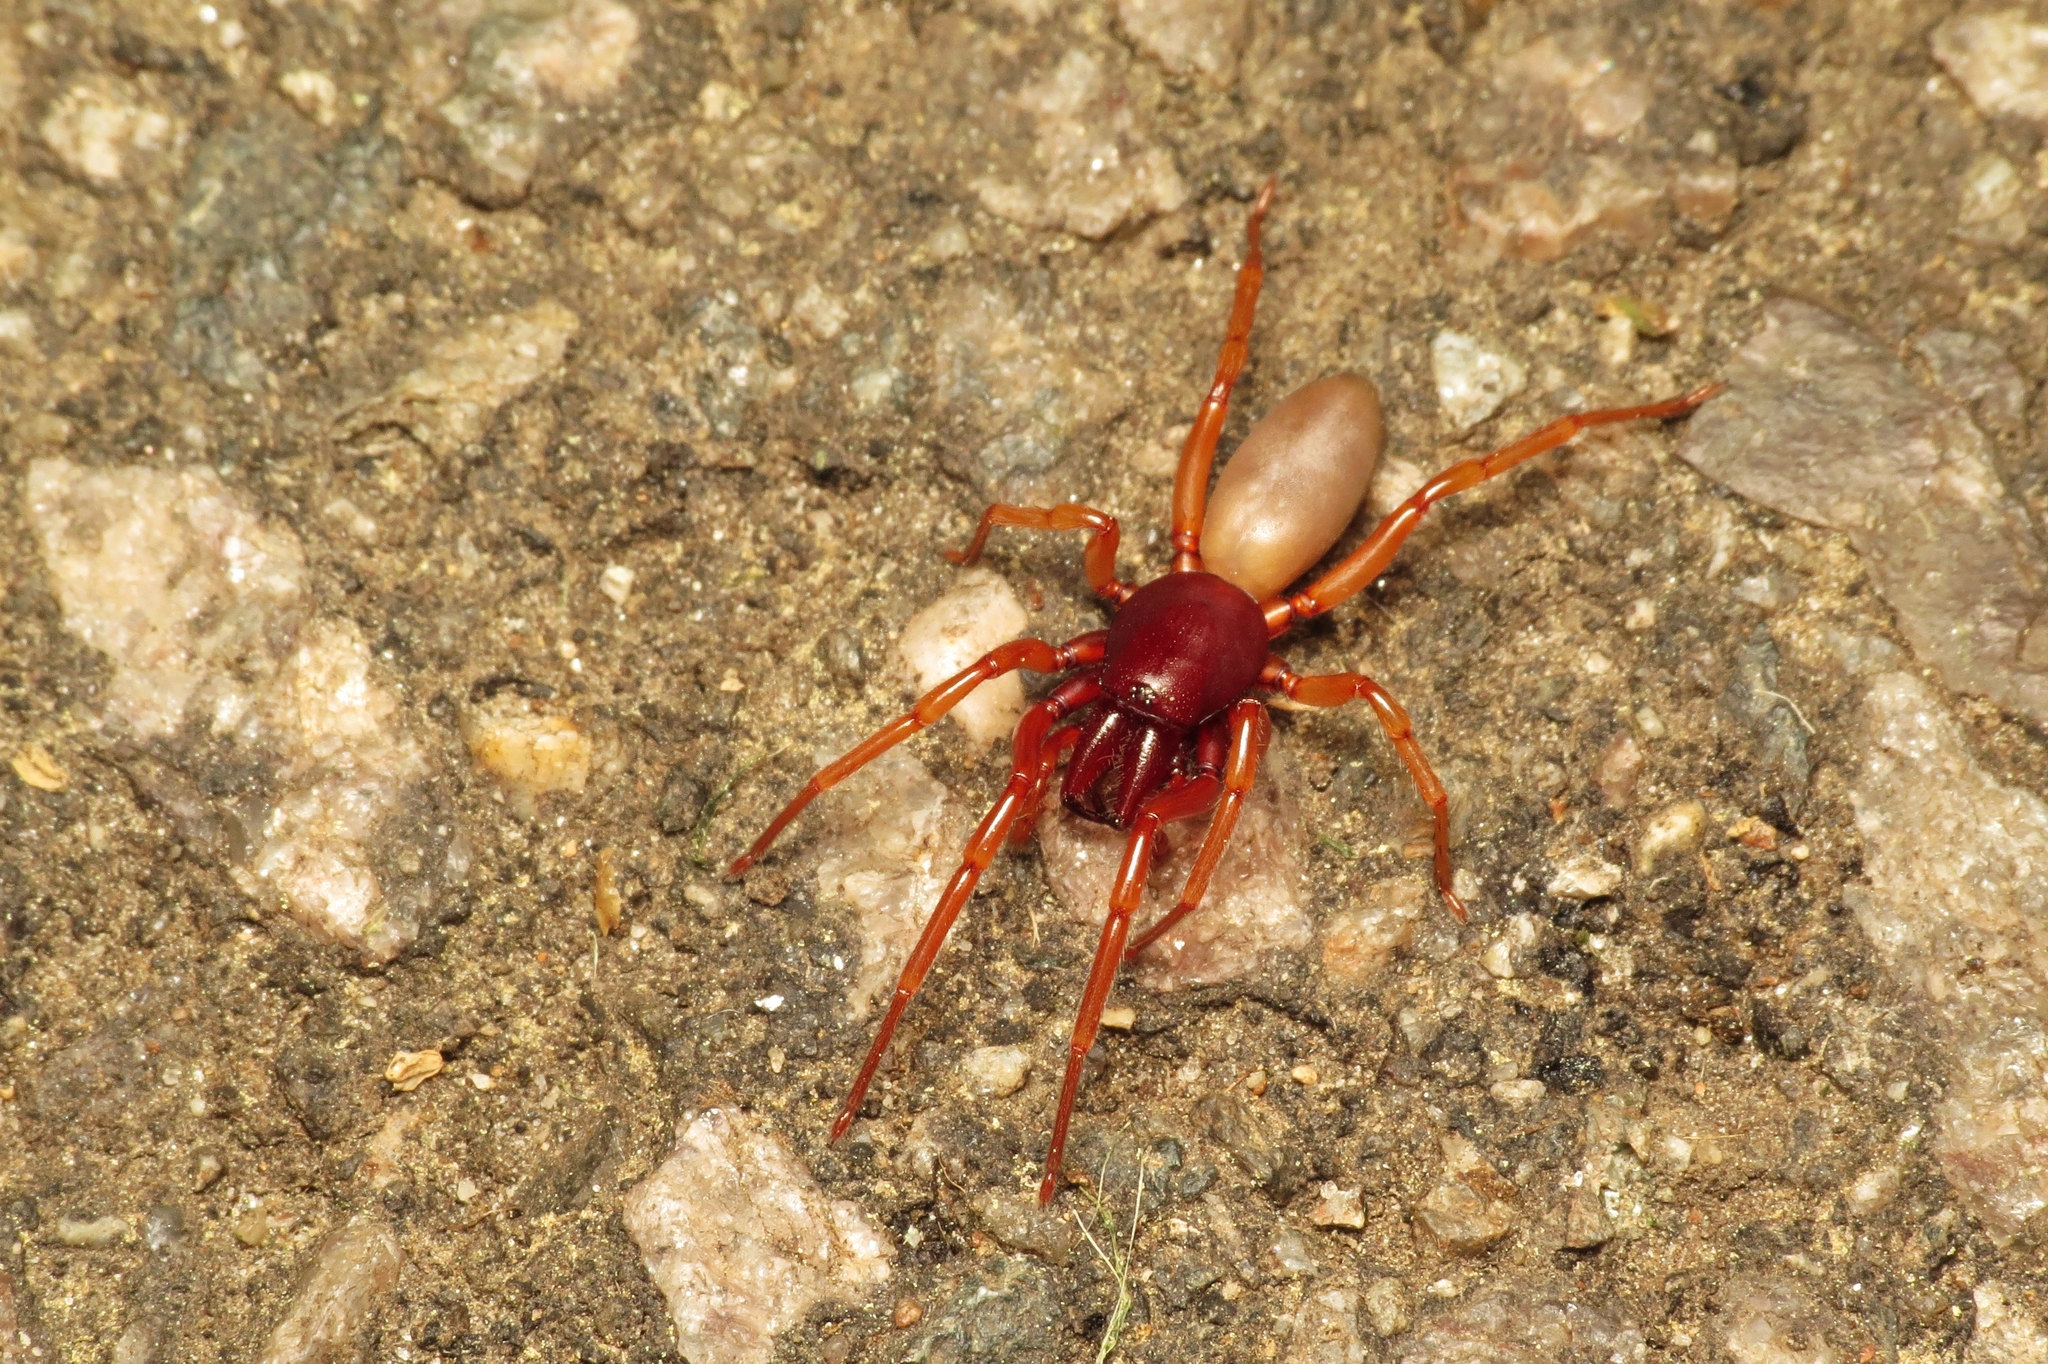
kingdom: Animalia
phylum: Arthropoda
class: Arachnida
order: Araneae
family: Dysderidae
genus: Dysdera
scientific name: Dysdera crocata
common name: Woodlouse spider
